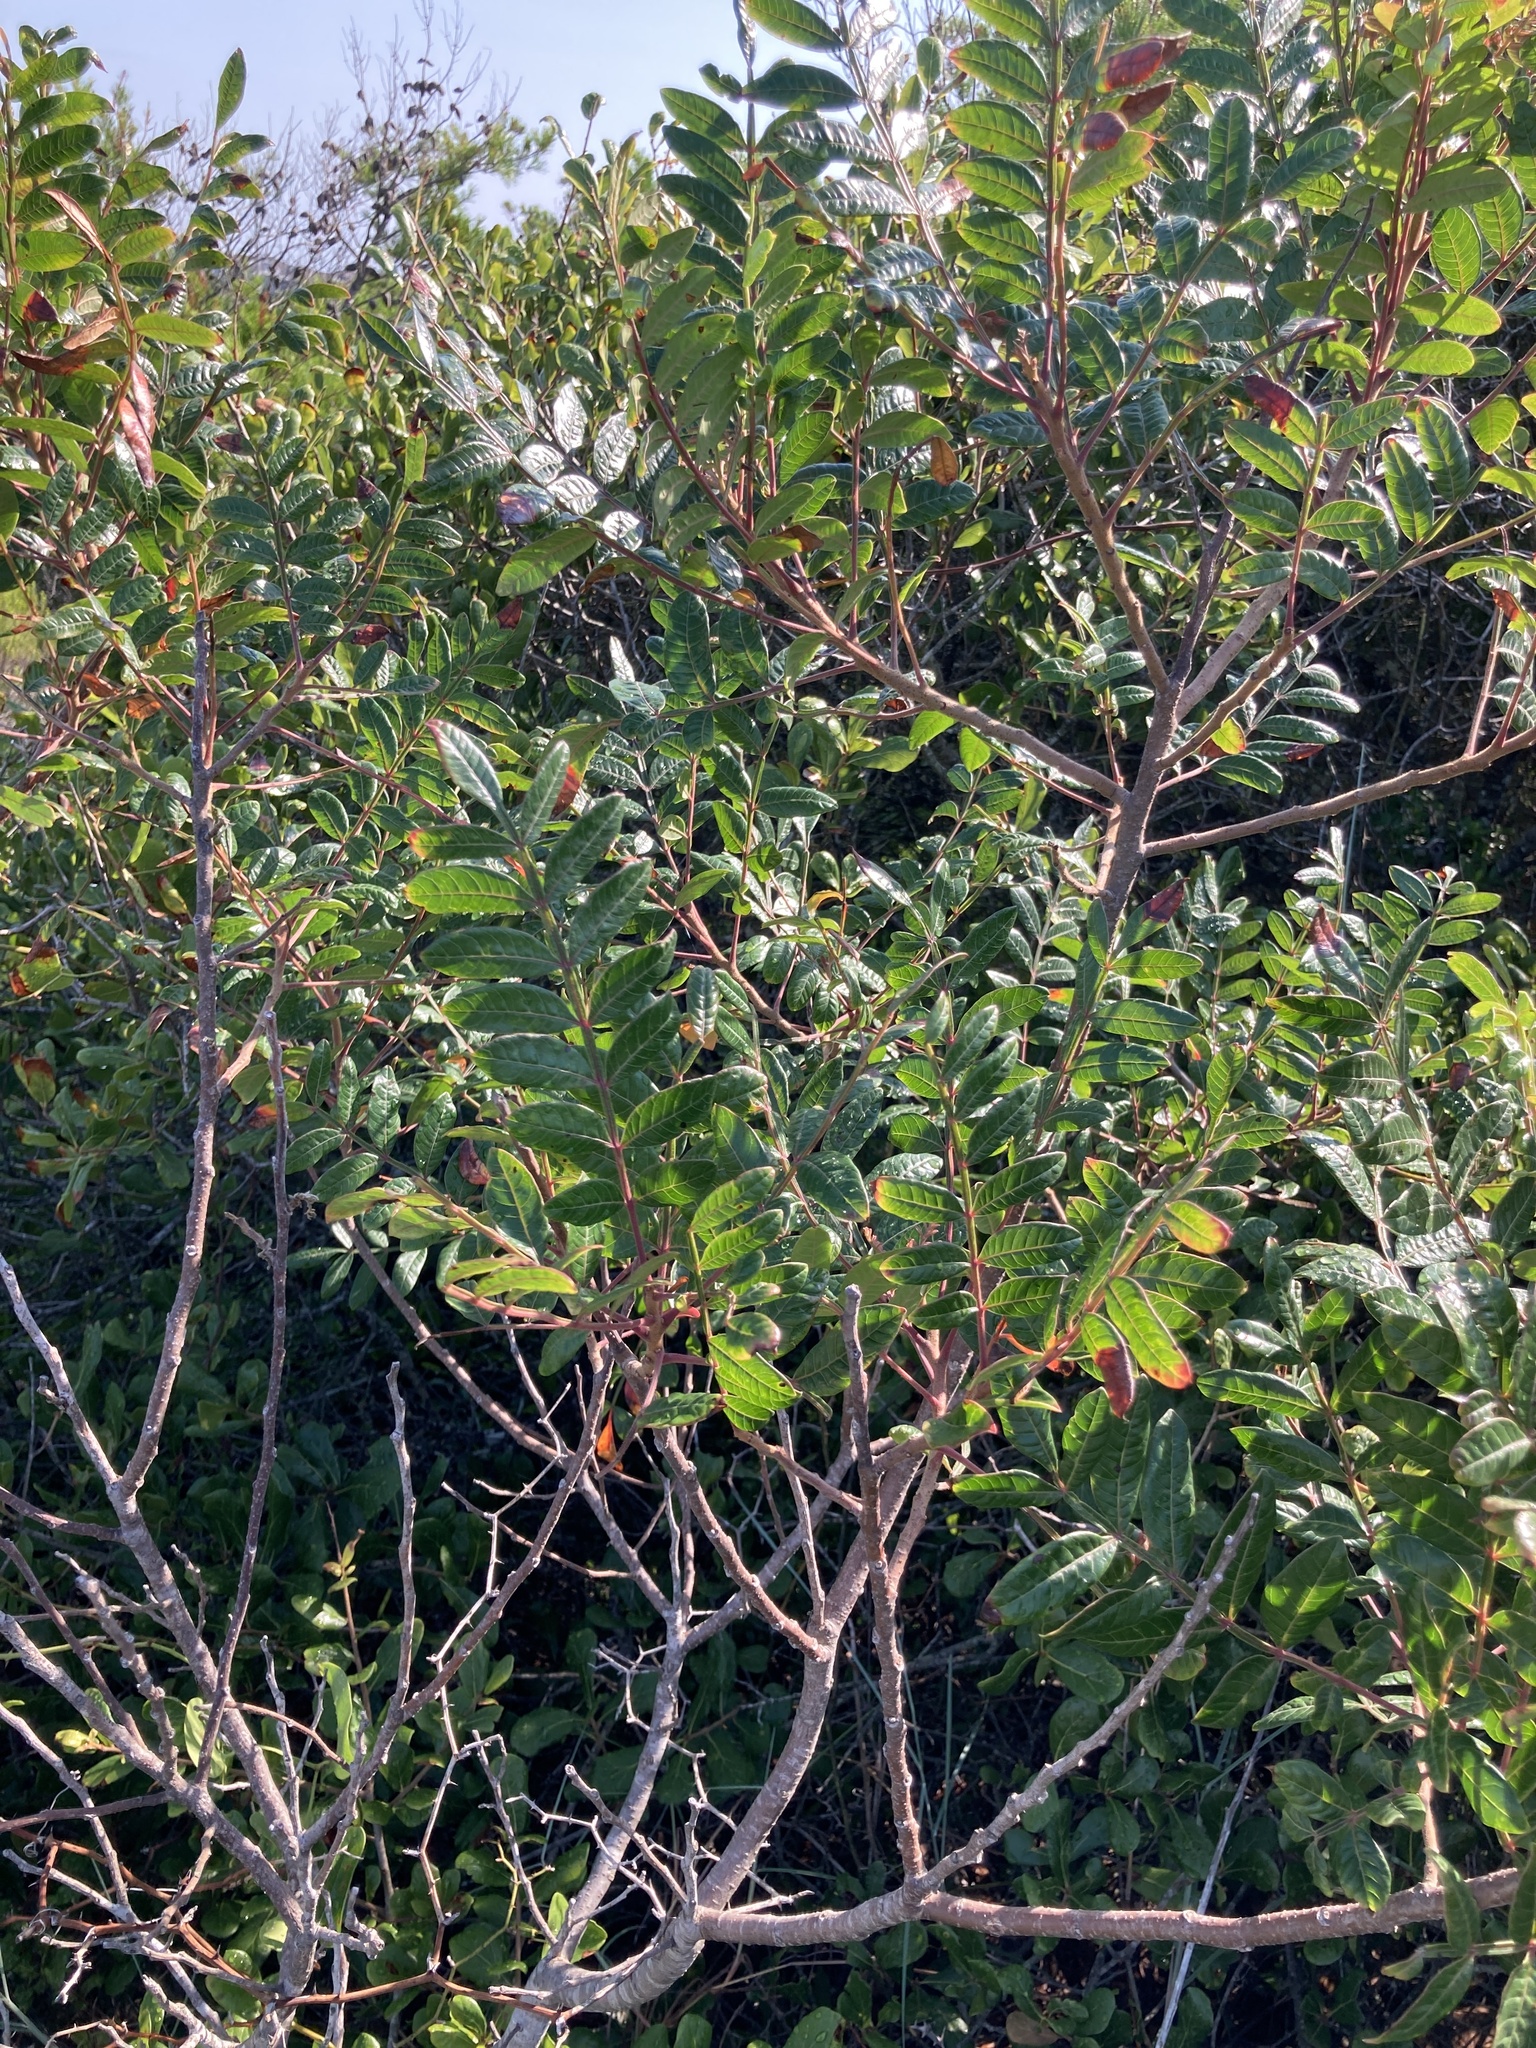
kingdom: Plantae
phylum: Tracheophyta
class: Magnoliopsida
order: Sapindales
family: Anacardiaceae
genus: Rhus
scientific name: Rhus copallina
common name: Shining sumac
